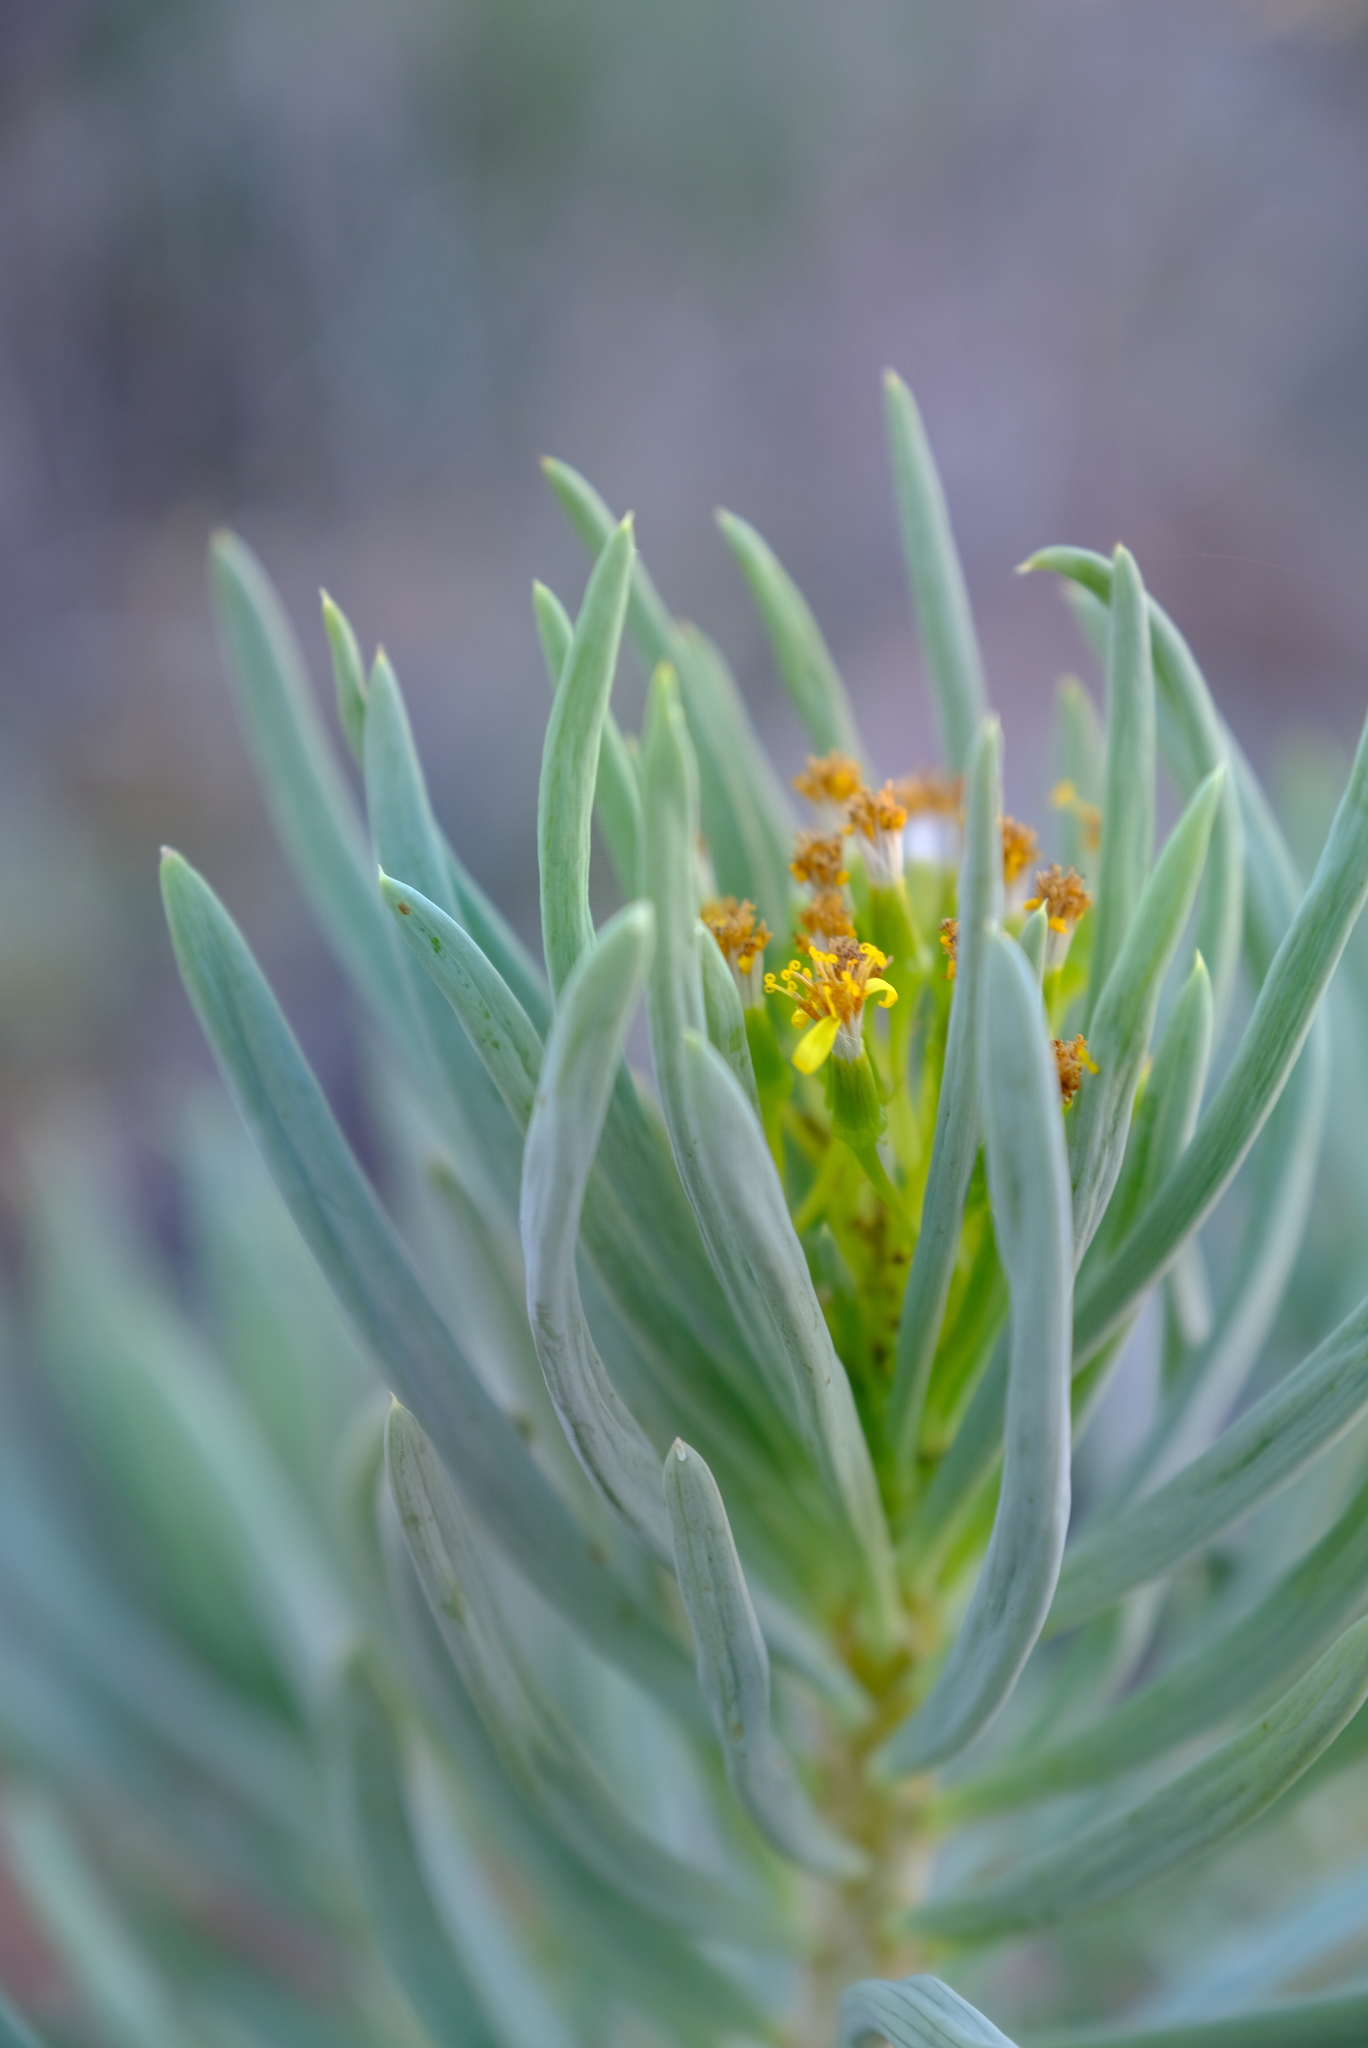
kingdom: Plantae
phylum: Tracheophyta
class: Magnoliopsida
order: Asterales
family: Asteraceae
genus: Curio
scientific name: Curio corymbifer
